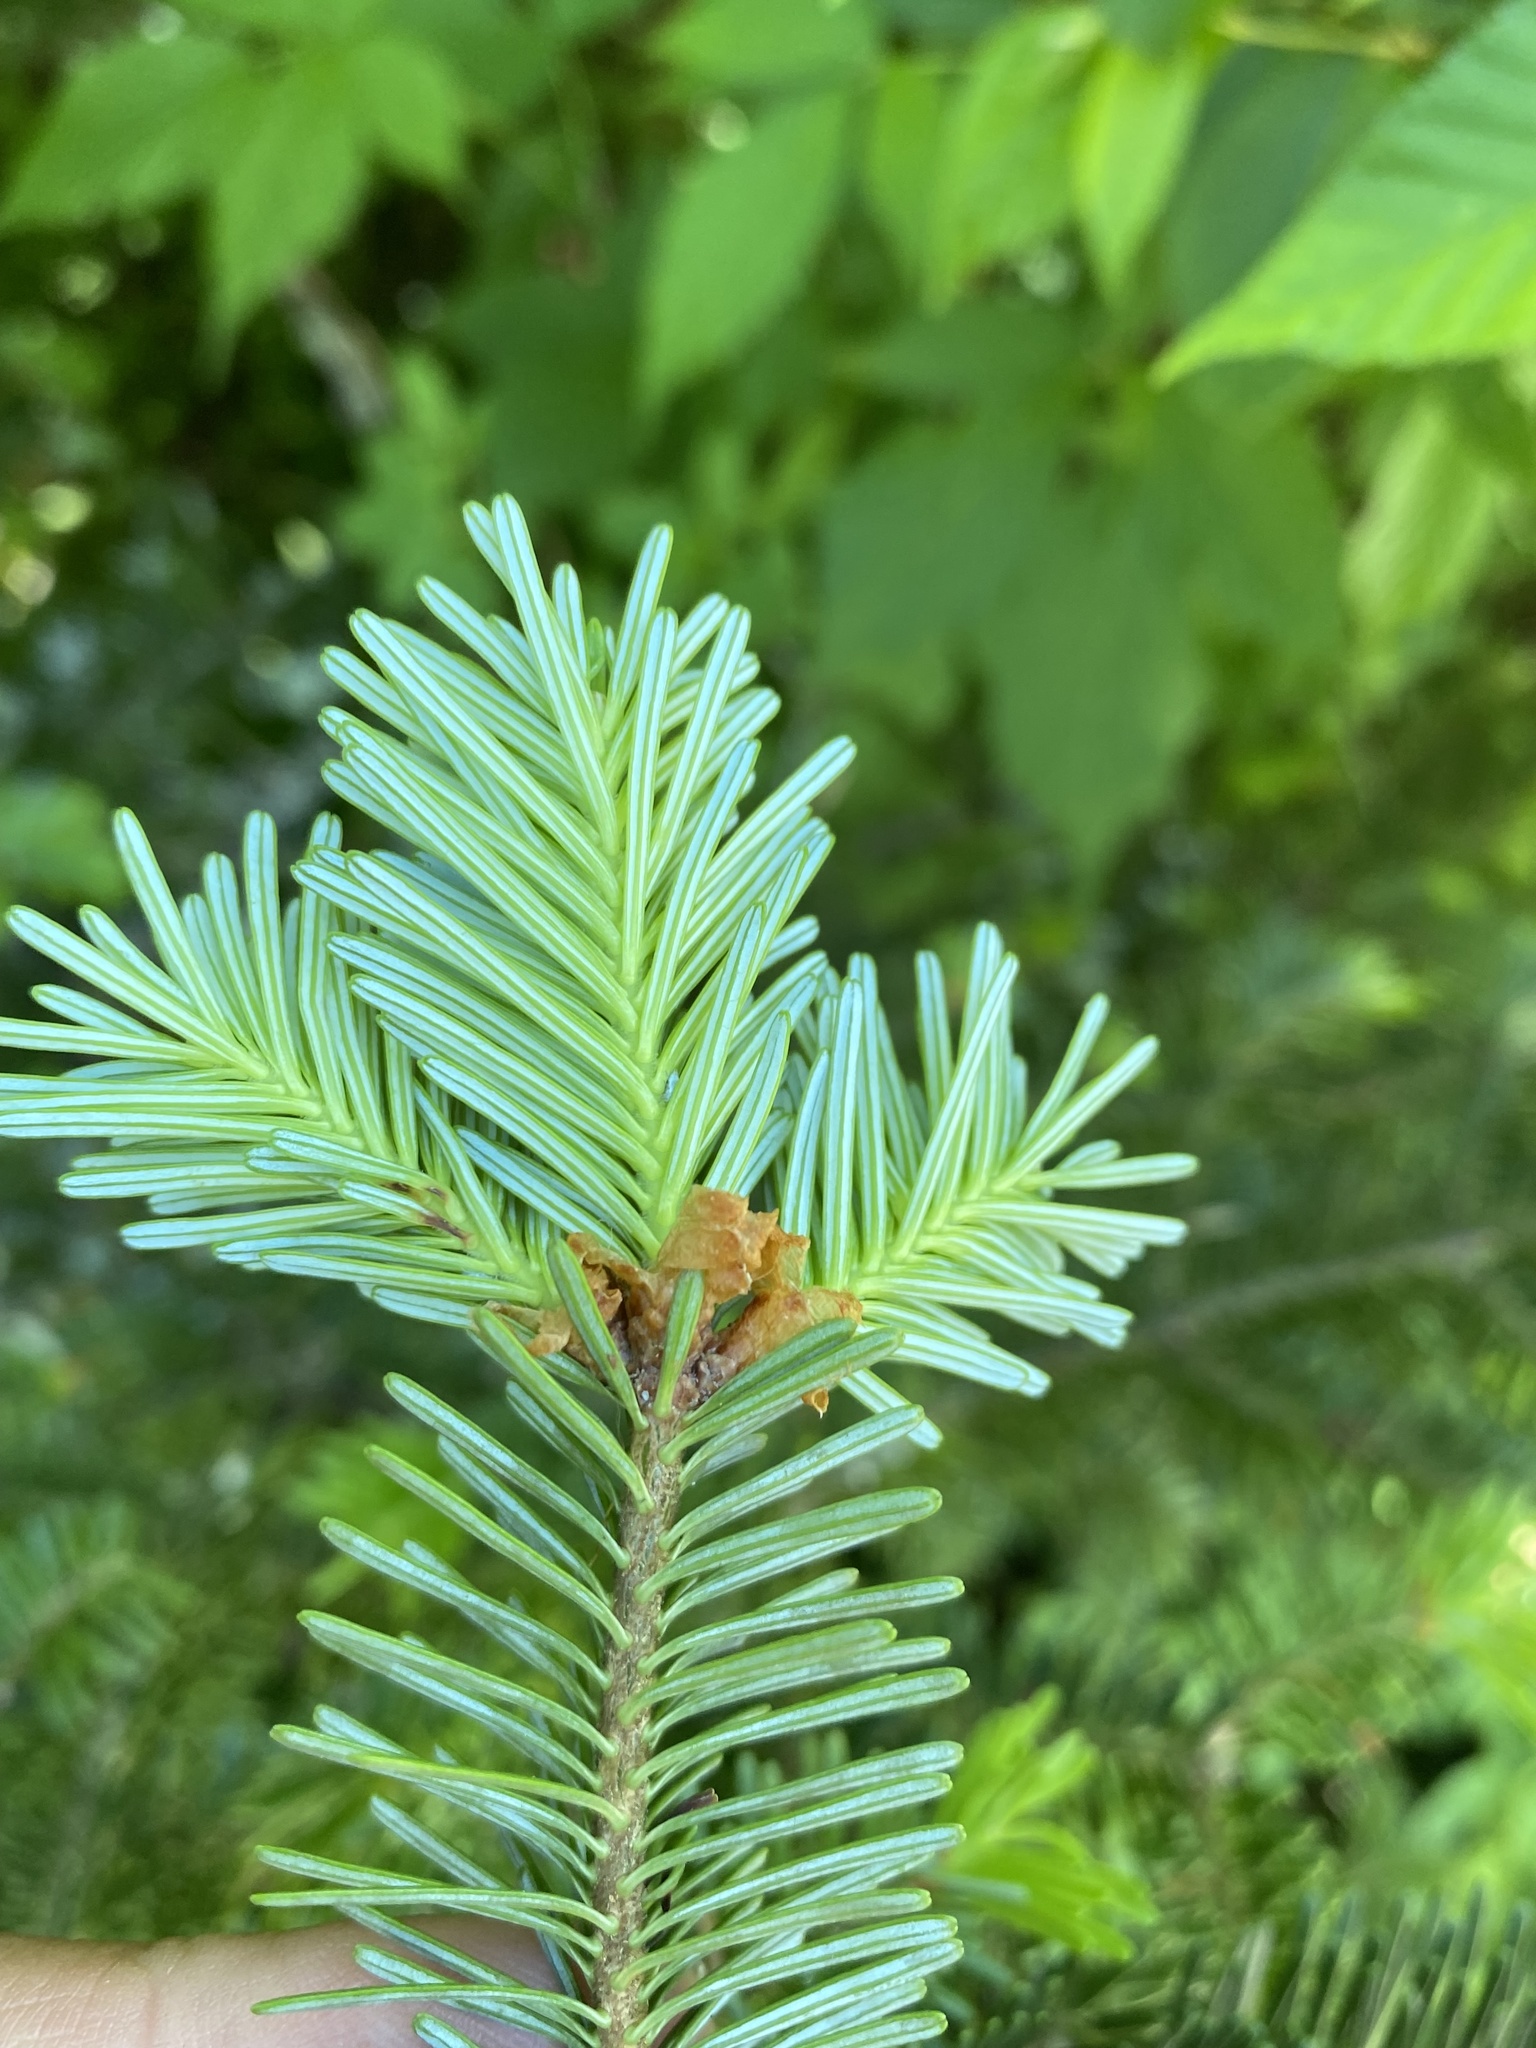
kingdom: Plantae
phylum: Tracheophyta
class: Pinopsida
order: Pinales
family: Pinaceae
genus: Abies
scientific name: Abies fraseri
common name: Fraser fir
